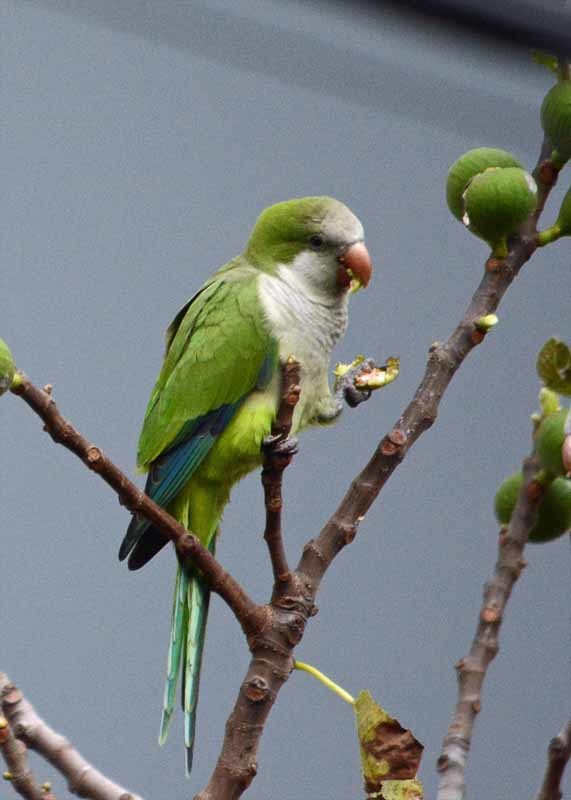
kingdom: Animalia
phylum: Chordata
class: Aves
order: Psittaciformes
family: Psittacidae
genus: Myiopsitta
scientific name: Myiopsitta monachus
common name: Monk parakeet
